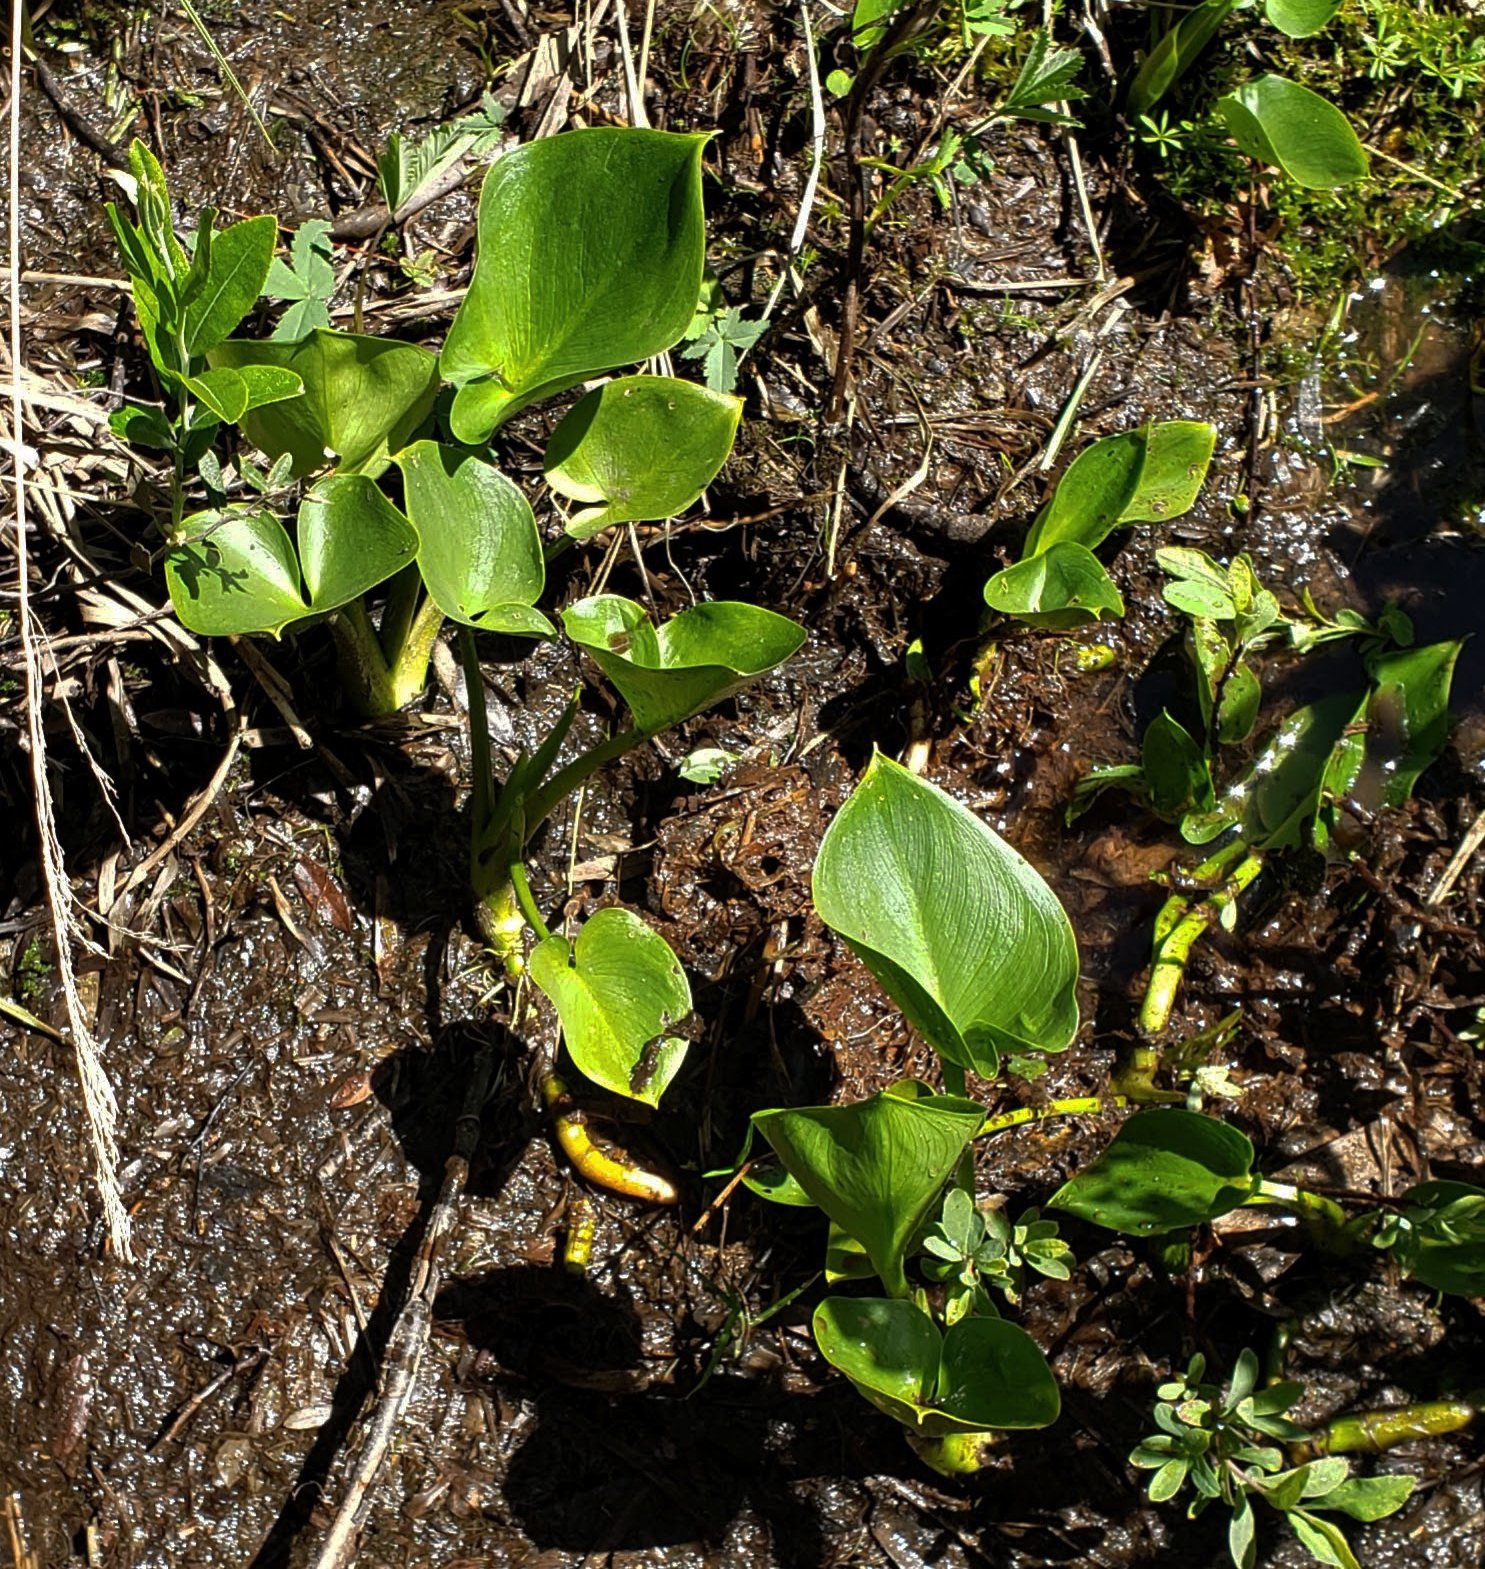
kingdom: Plantae
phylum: Tracheophyta
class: Liliopsida
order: Alismatales
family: Araceae
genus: Calla
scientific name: Calla palustris
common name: Bog arum
